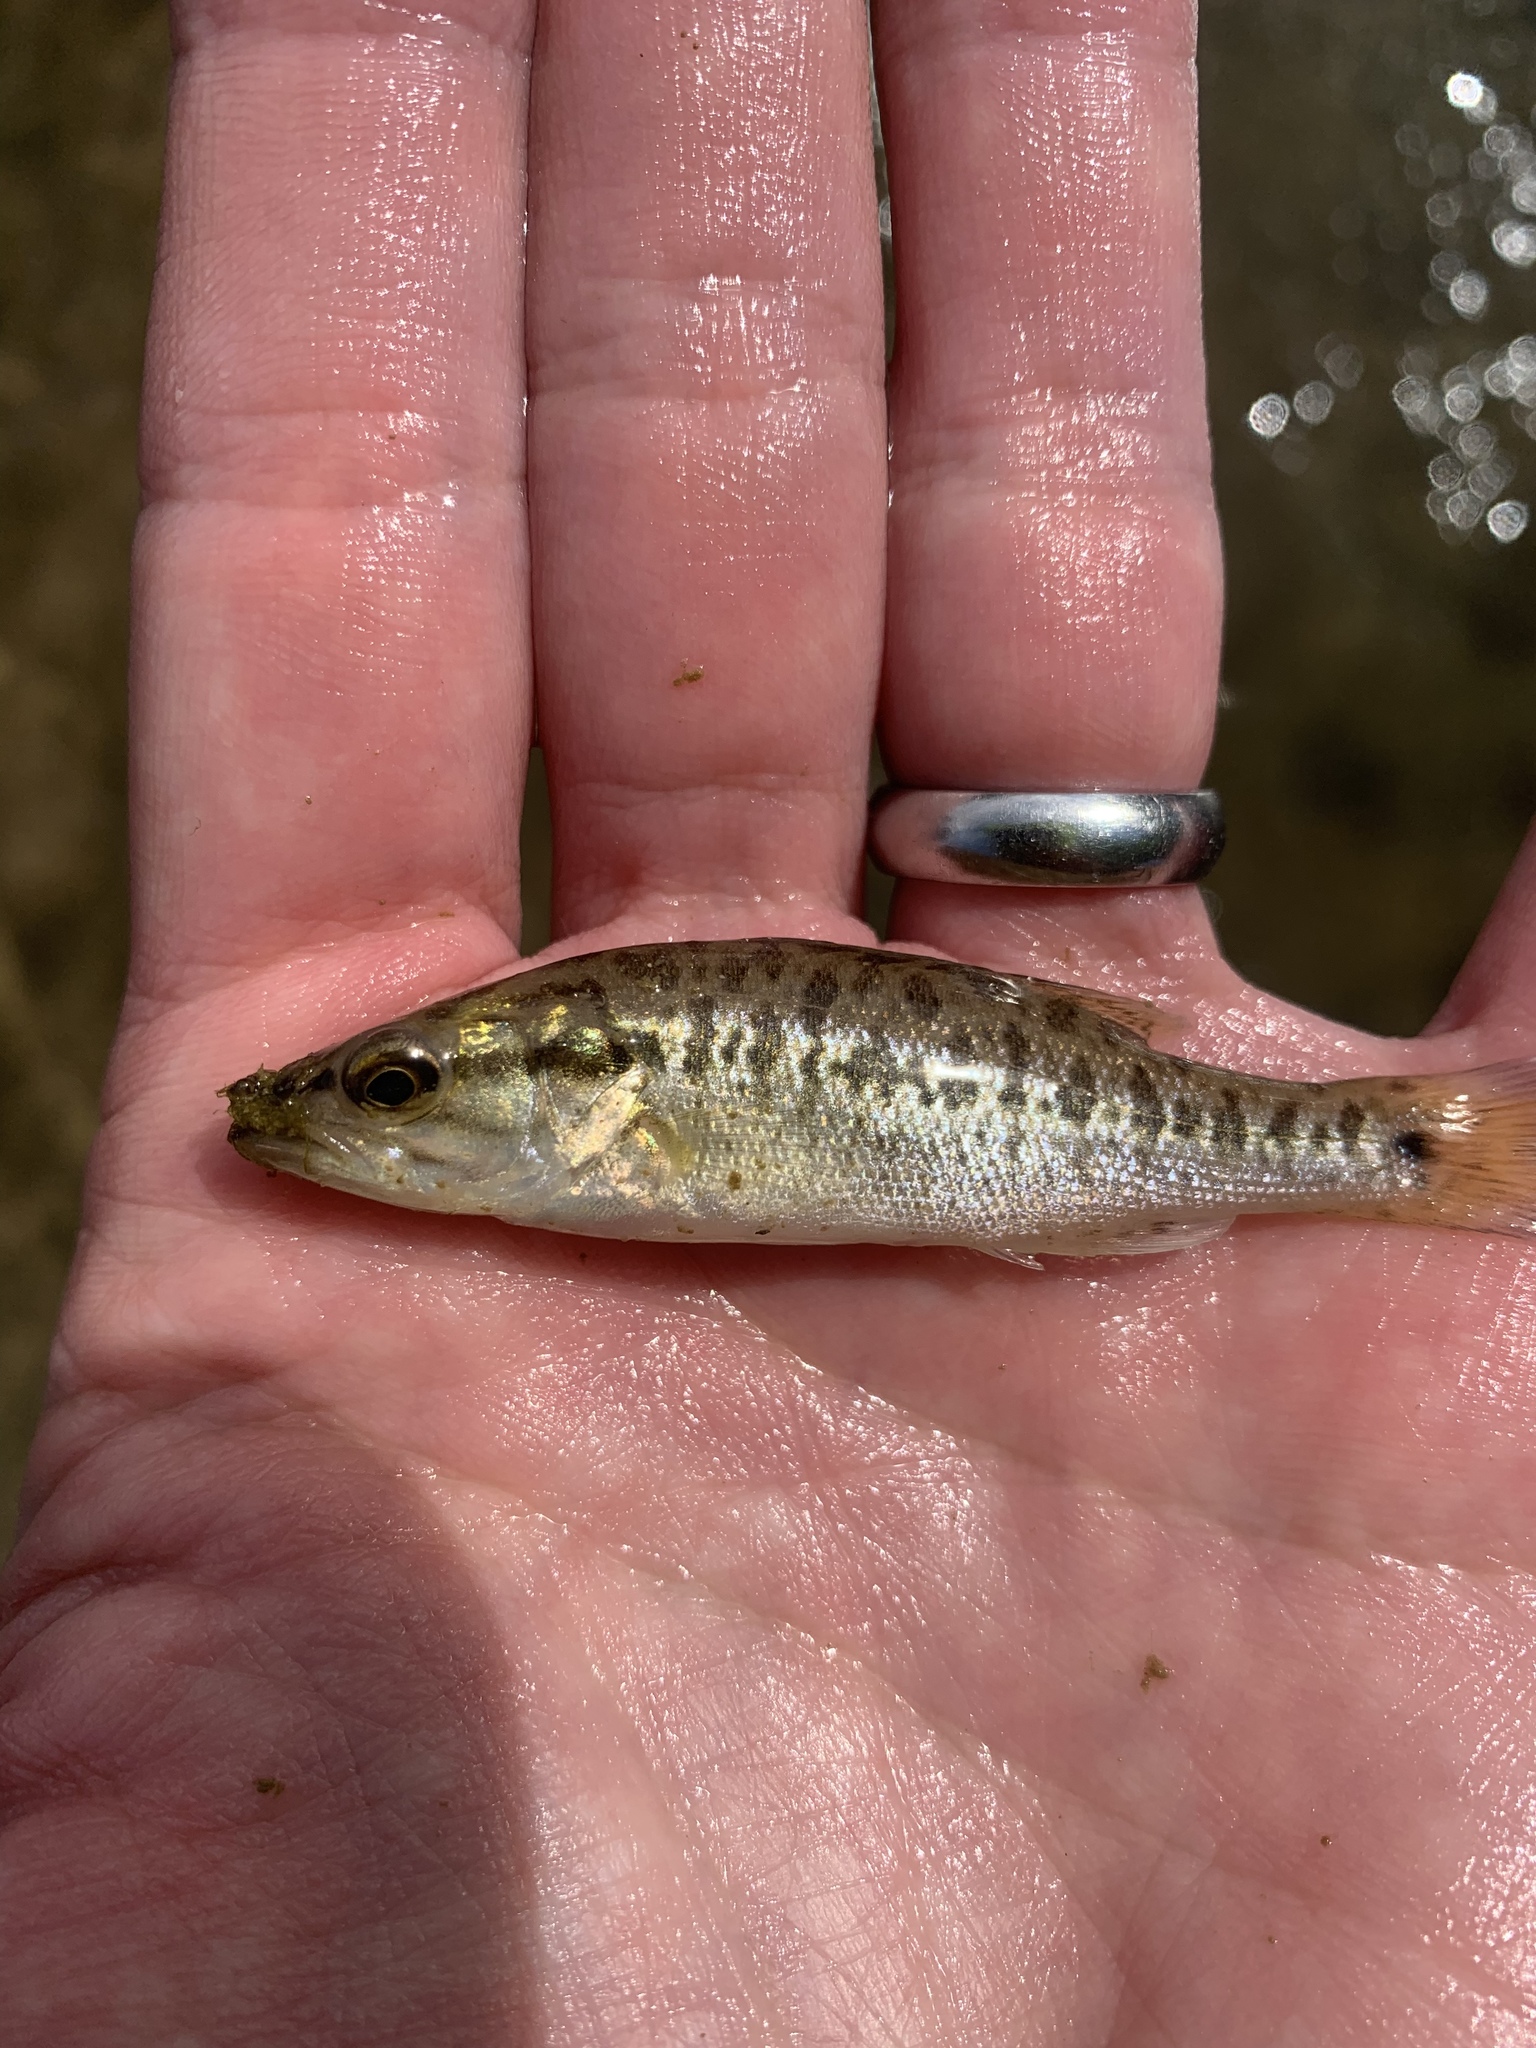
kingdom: Animalia
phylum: Chordata
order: Perciformes
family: Centrarchidae
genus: Micropterus
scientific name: Micropterus treculii
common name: Guadalupe bass
